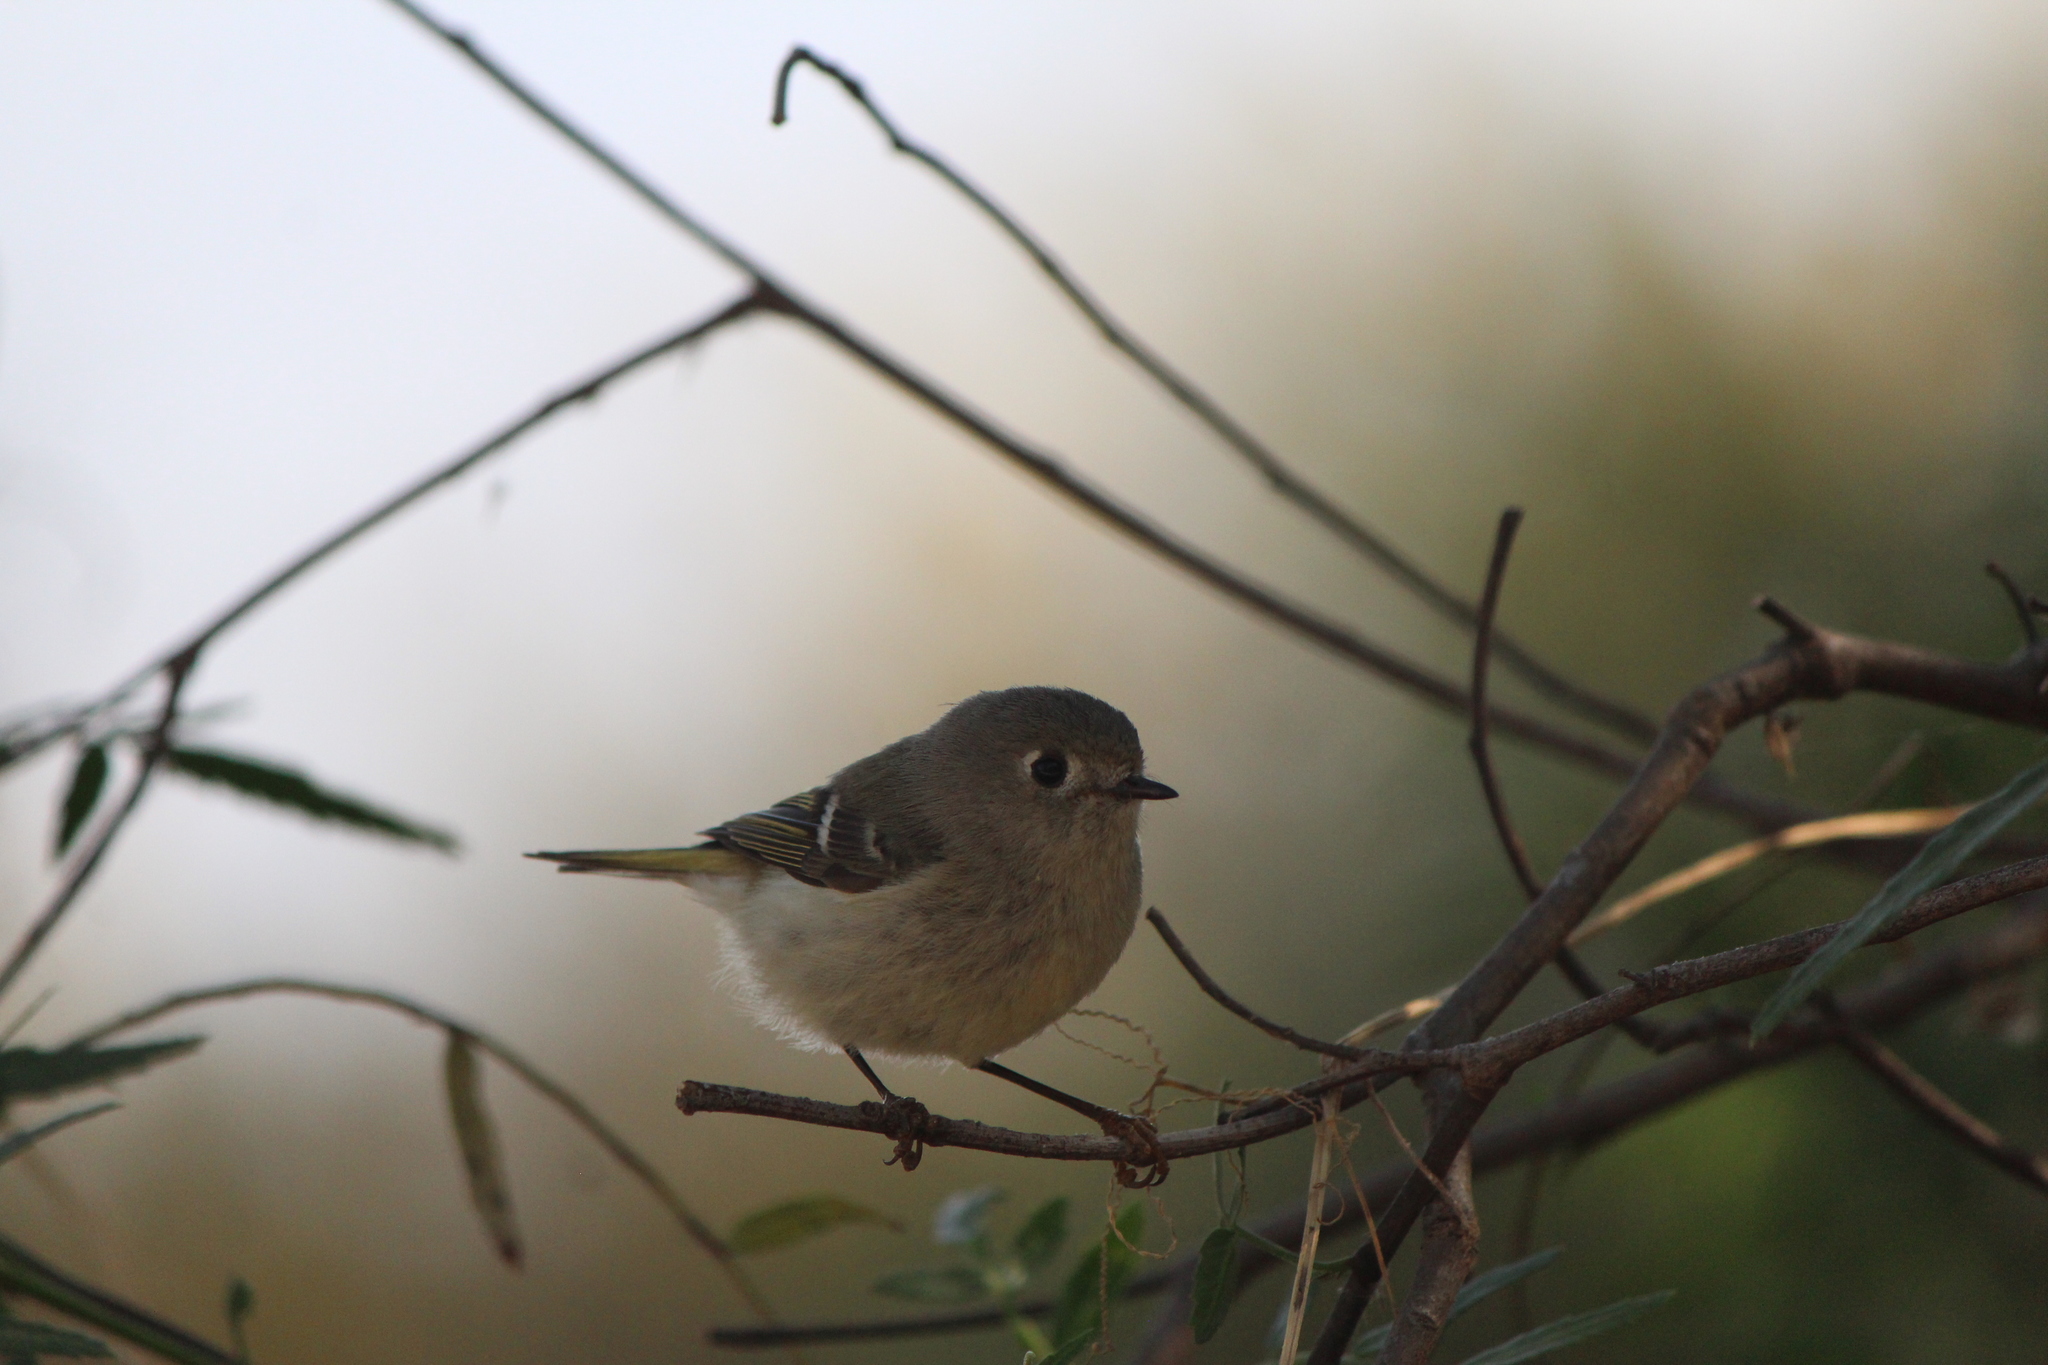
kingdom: Animalia
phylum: Chordata
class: Aves
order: Passeriformes
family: Regulidae
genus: Regulus
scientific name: Regulus calendula
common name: Ruby-crowned kinglet
